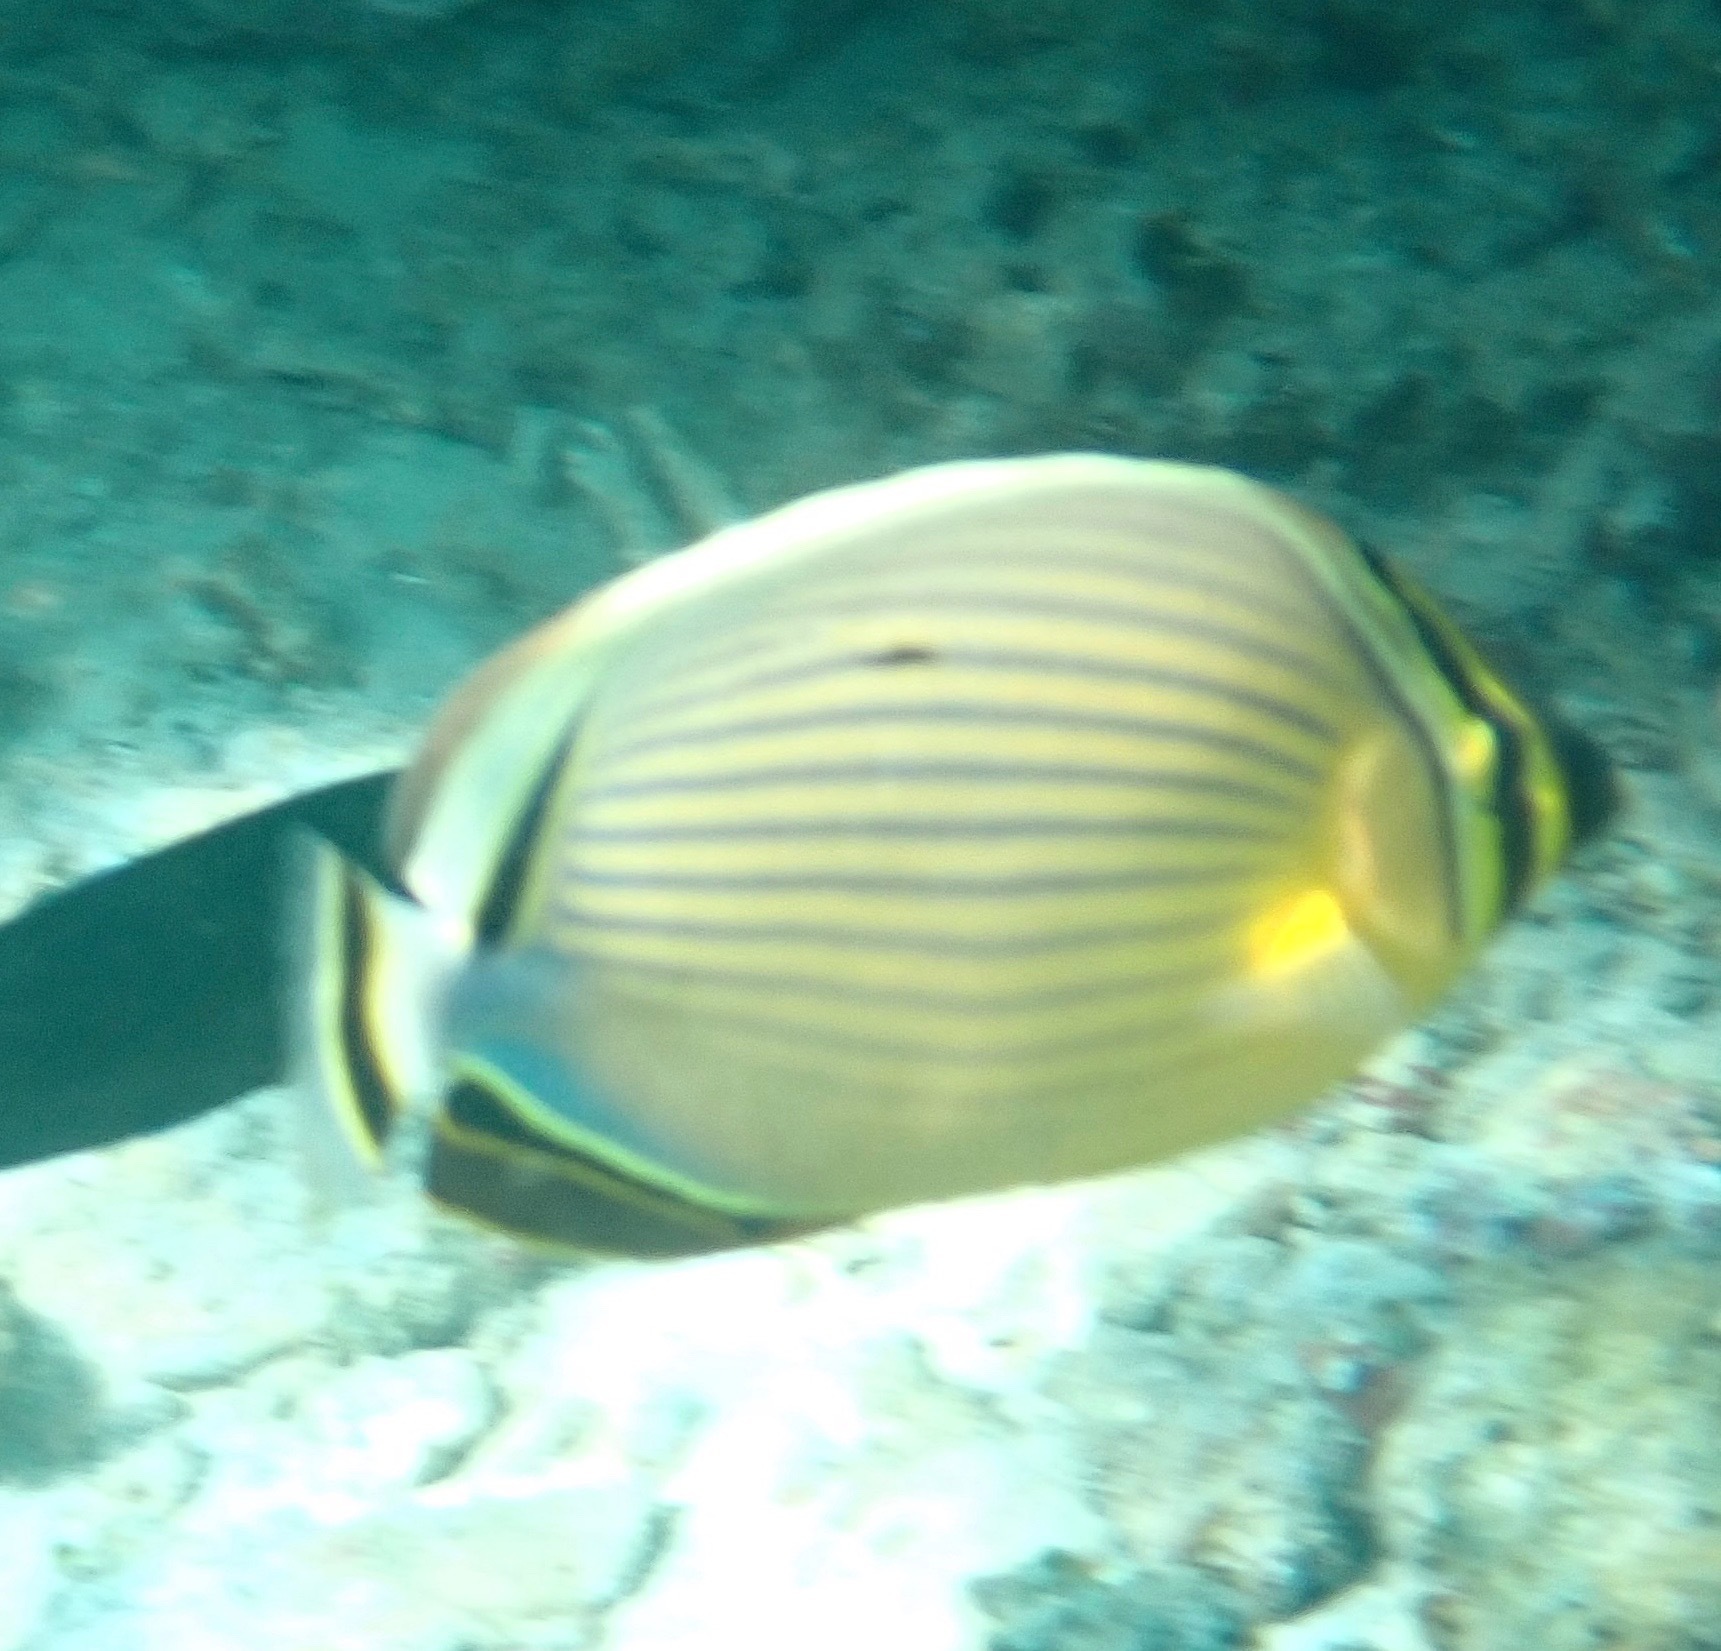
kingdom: Animalia
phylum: Chordata
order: Perciformes
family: Chaetodontidae
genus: Chaetodon
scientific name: Chaetodon lunulatus
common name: Redfin butterflyfish
